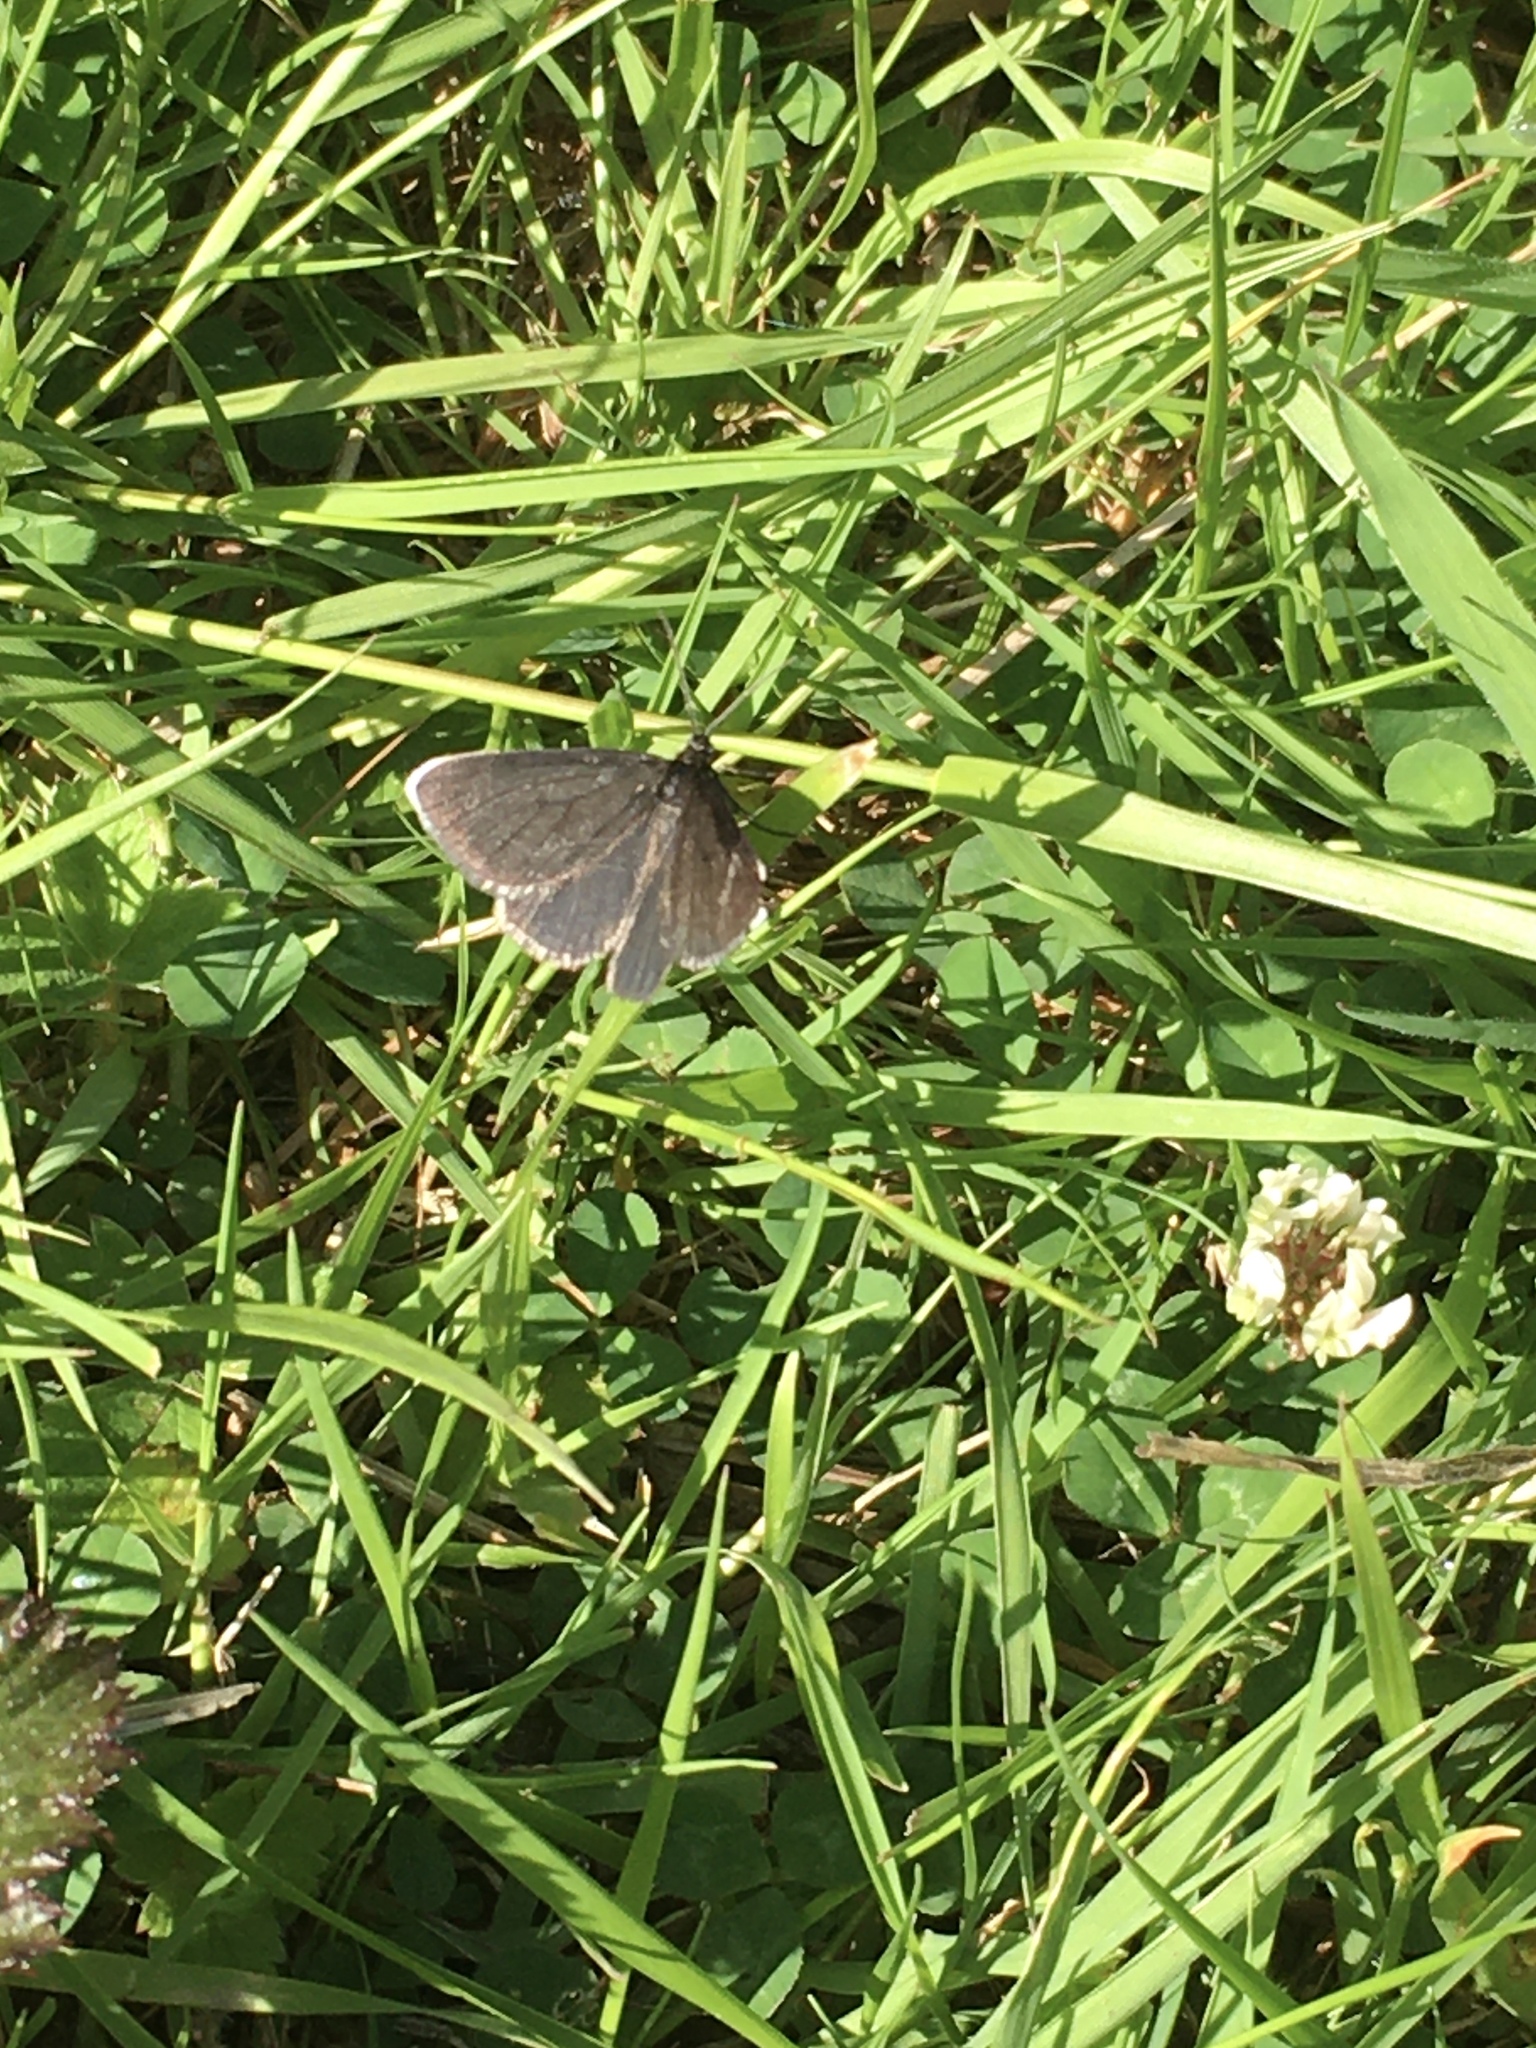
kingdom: Animalia
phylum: Arthropoda
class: Insecta
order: Lepidoptera
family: Geometridae
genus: Odezia
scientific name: Odezia atrata
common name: Chimney sweeper
